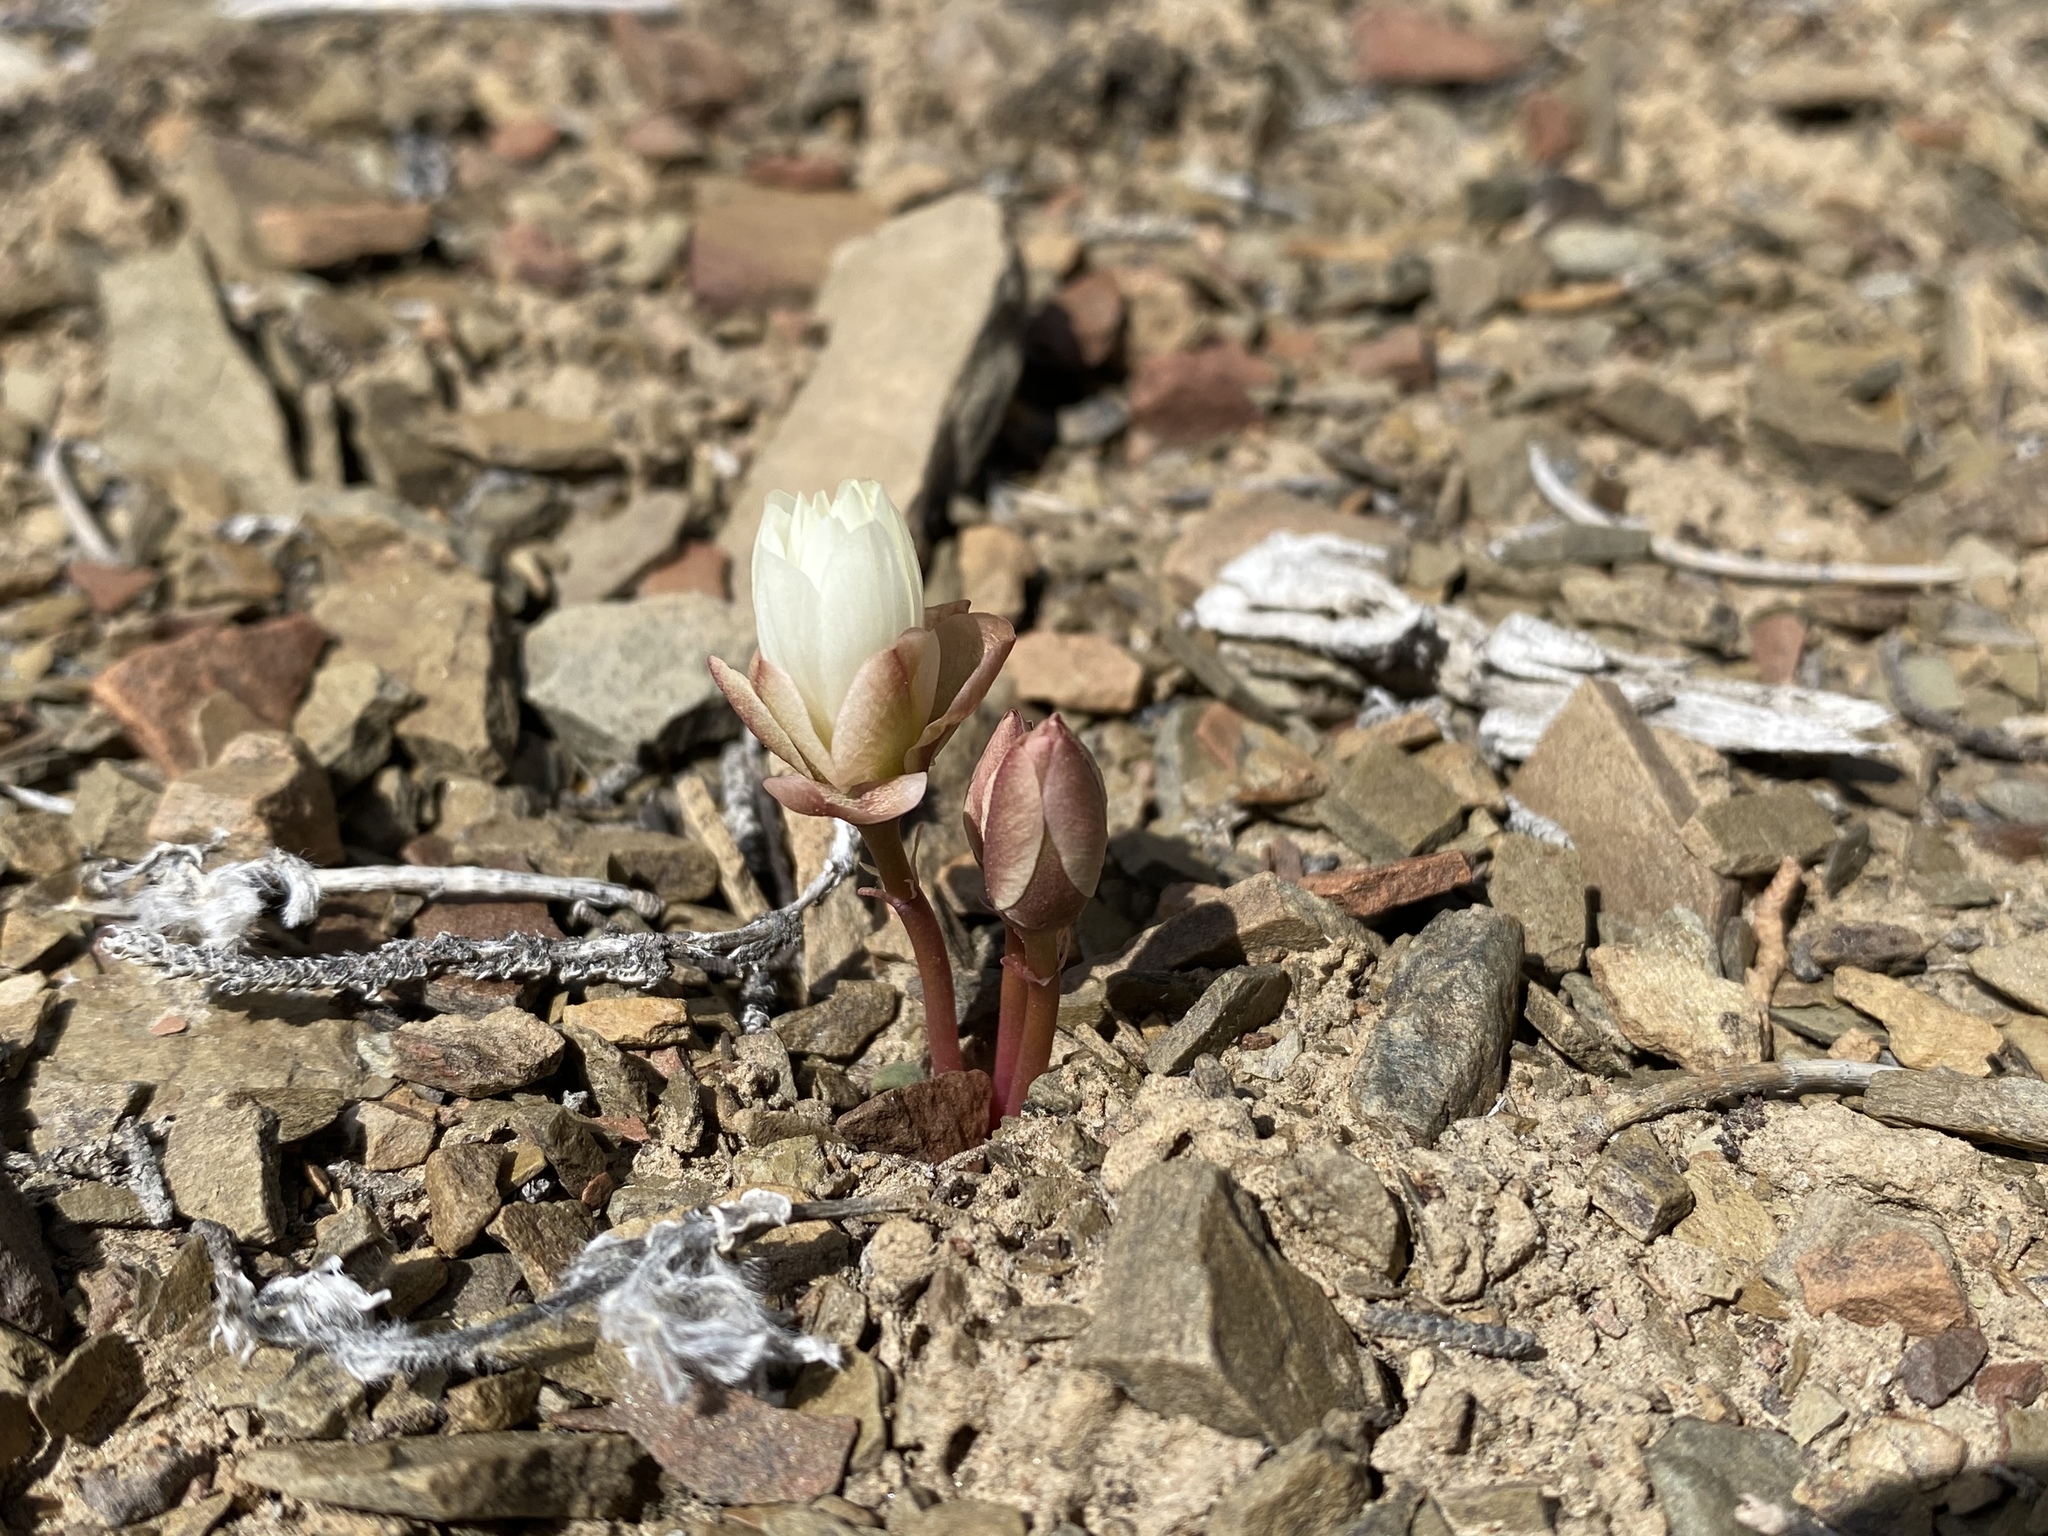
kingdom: Plantae
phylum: Tracheophyta
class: Magnoliopsida
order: Caryophyllales
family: Montiaceae
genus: Lewisia
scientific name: Lewisia rediviva
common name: Bitter-root
